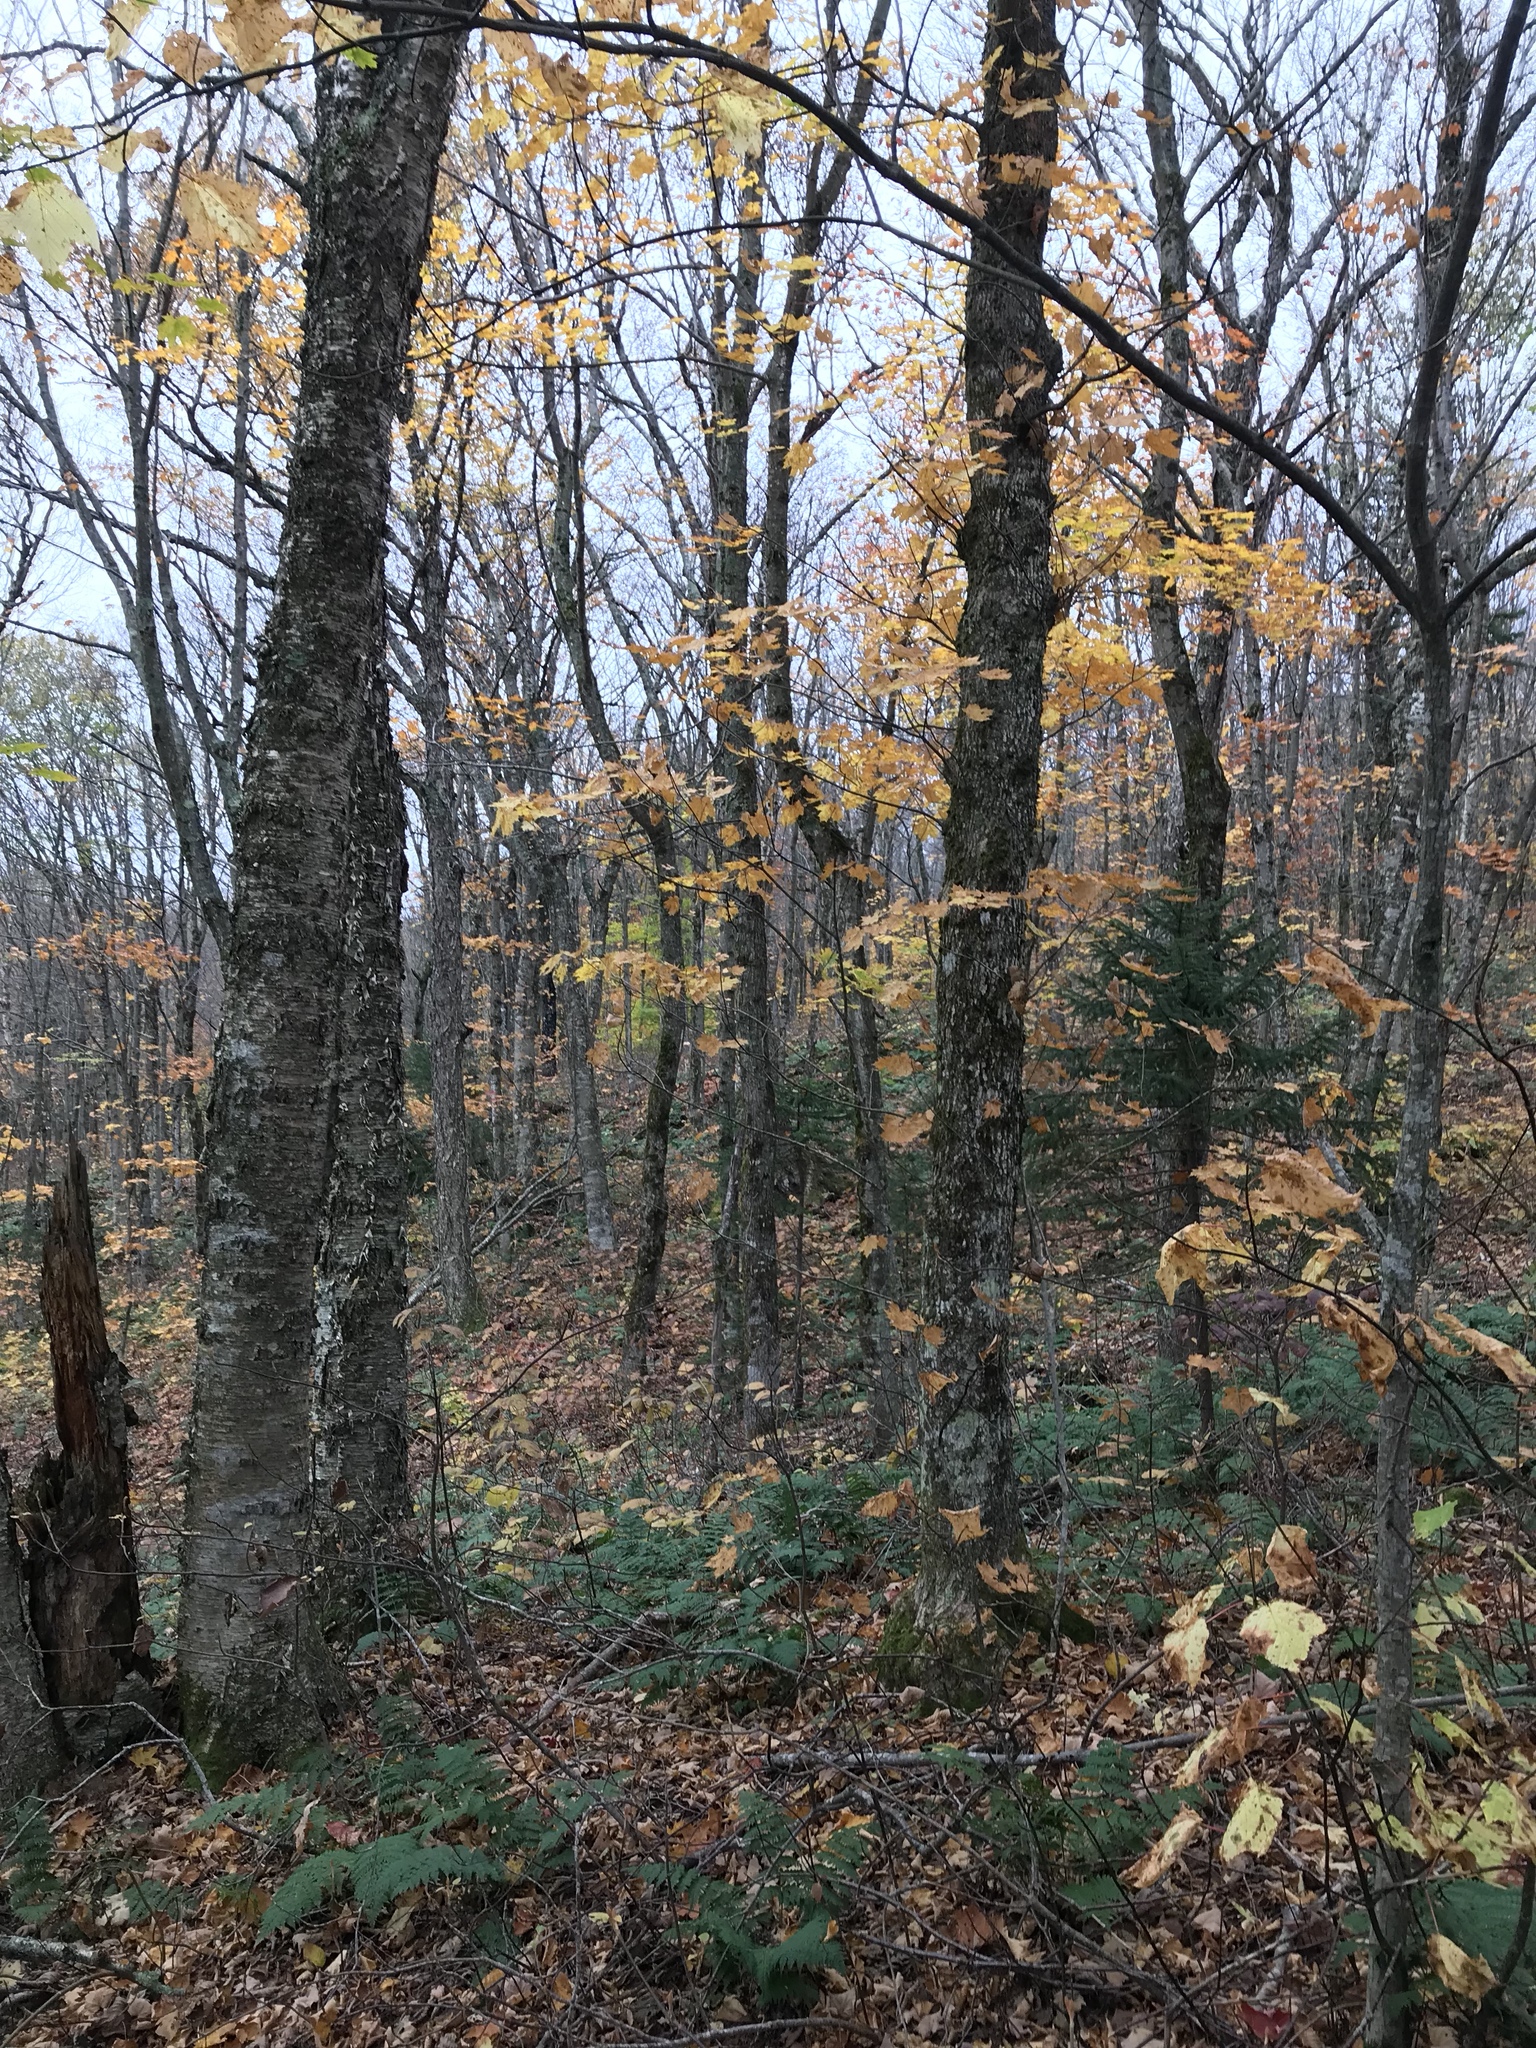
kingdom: Plantae
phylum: Tracheophyta
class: Magnoliopsida
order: Fagales
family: Betulaceae
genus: Betula
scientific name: Betula alleghaniensis
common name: Yellow birch
